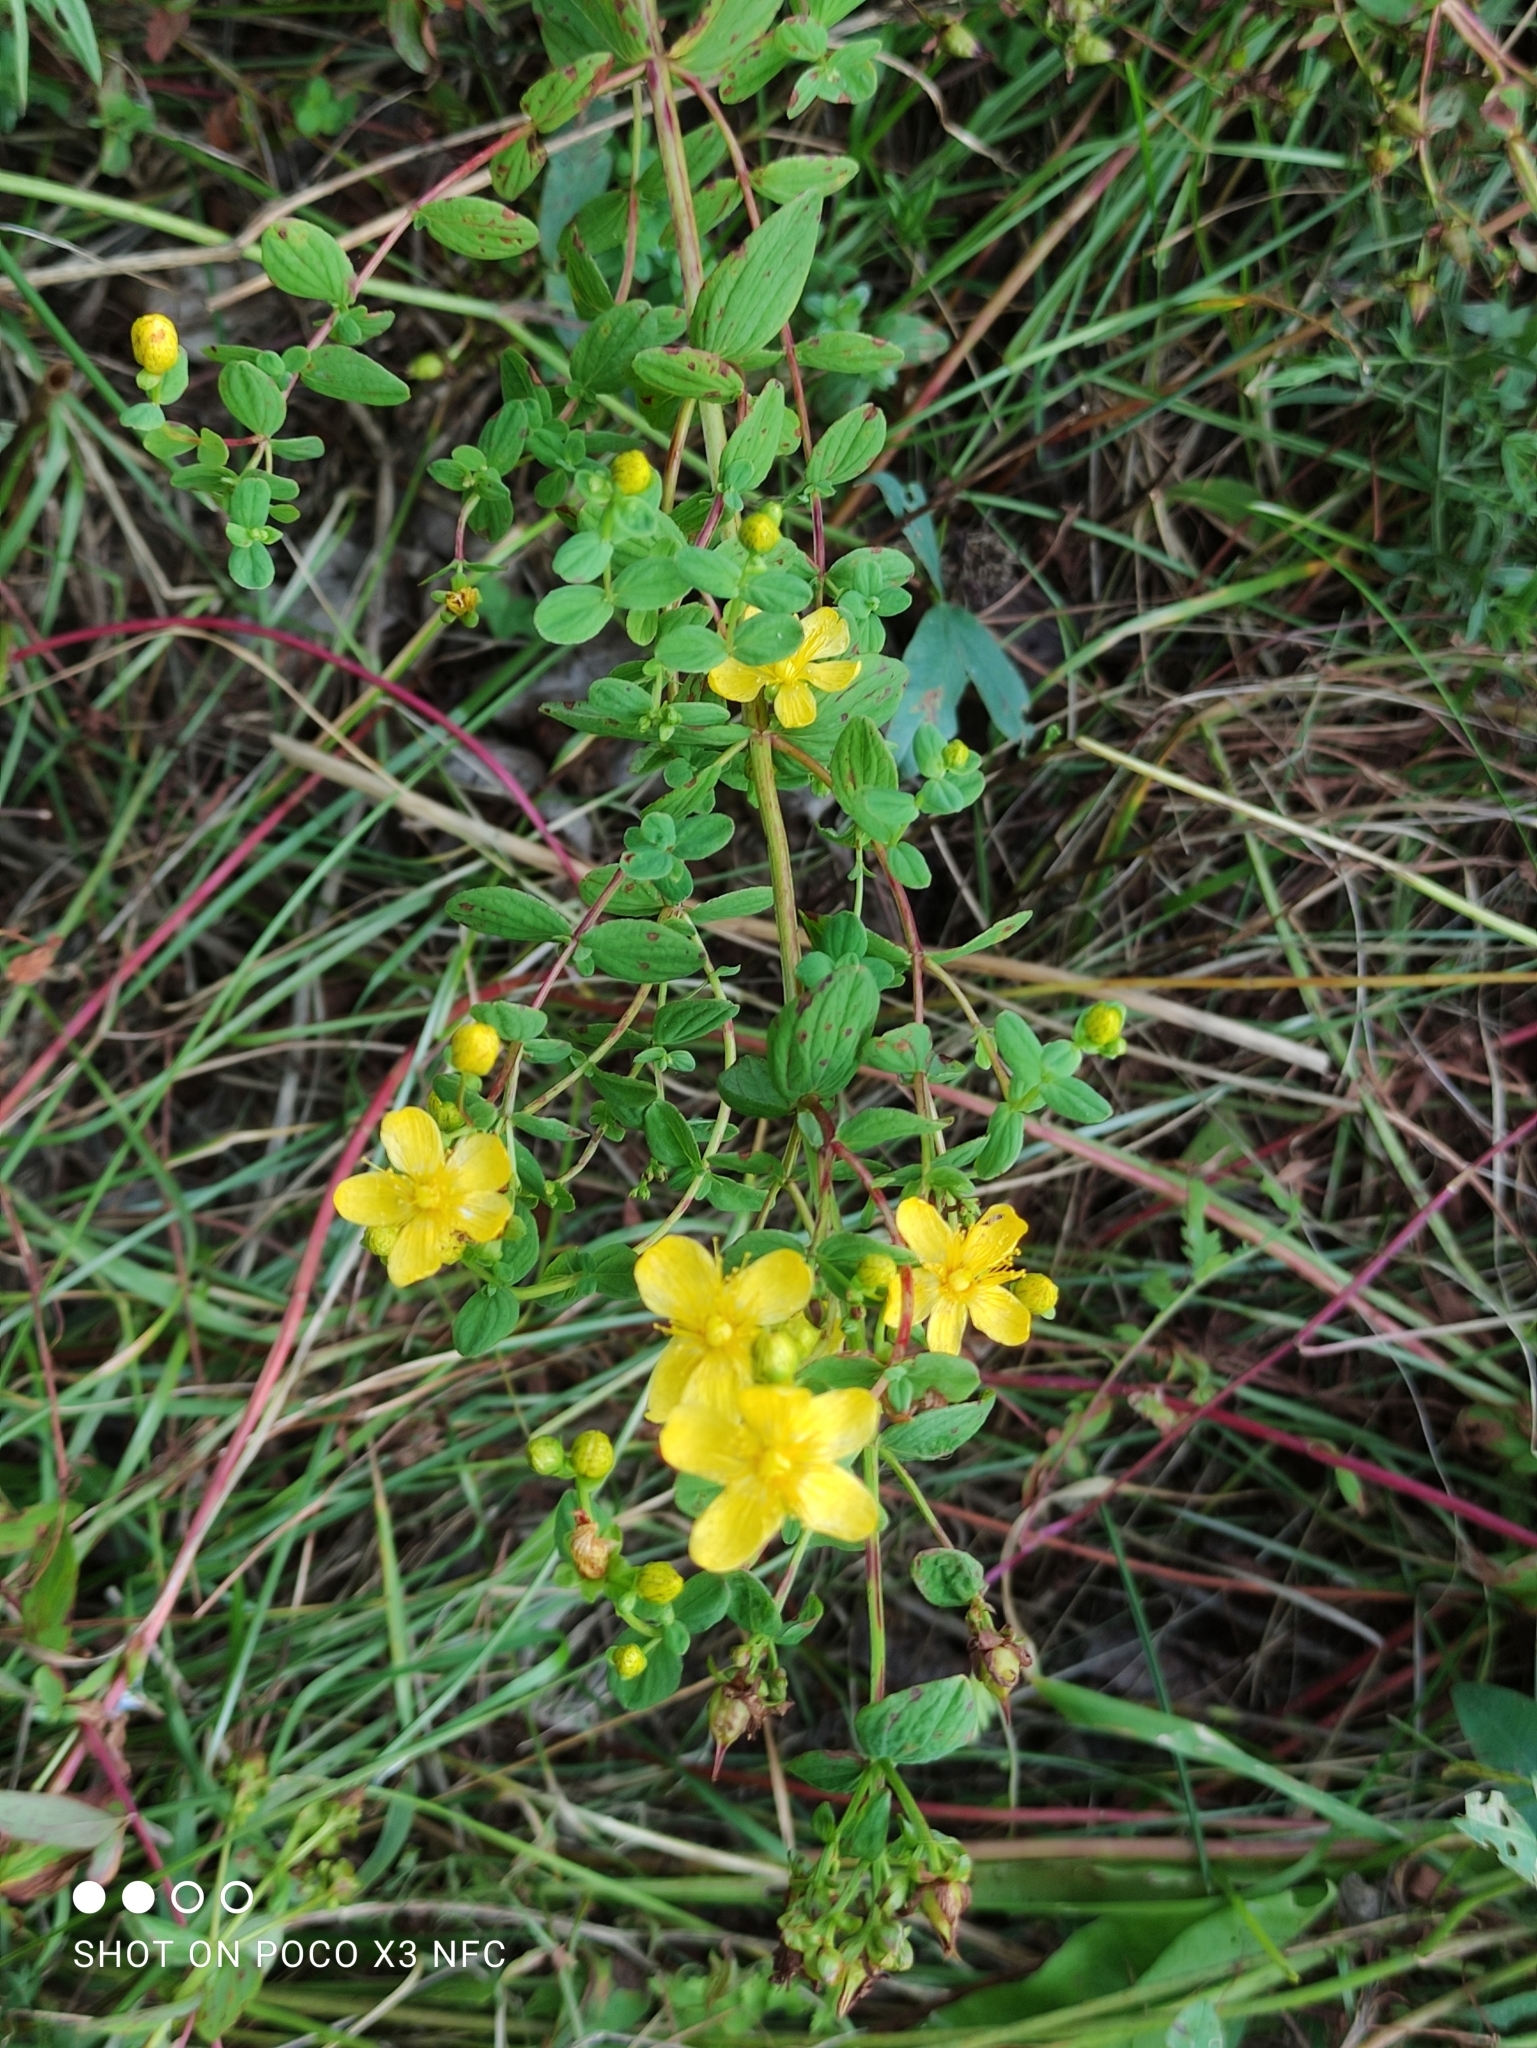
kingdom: Plantae
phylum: Tracheophyta
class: Magnoliopsida
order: Malpighiales
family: Hypericaceae
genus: Hypericum
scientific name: Hypericum maculatum
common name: Imperforate st. john's-wort
